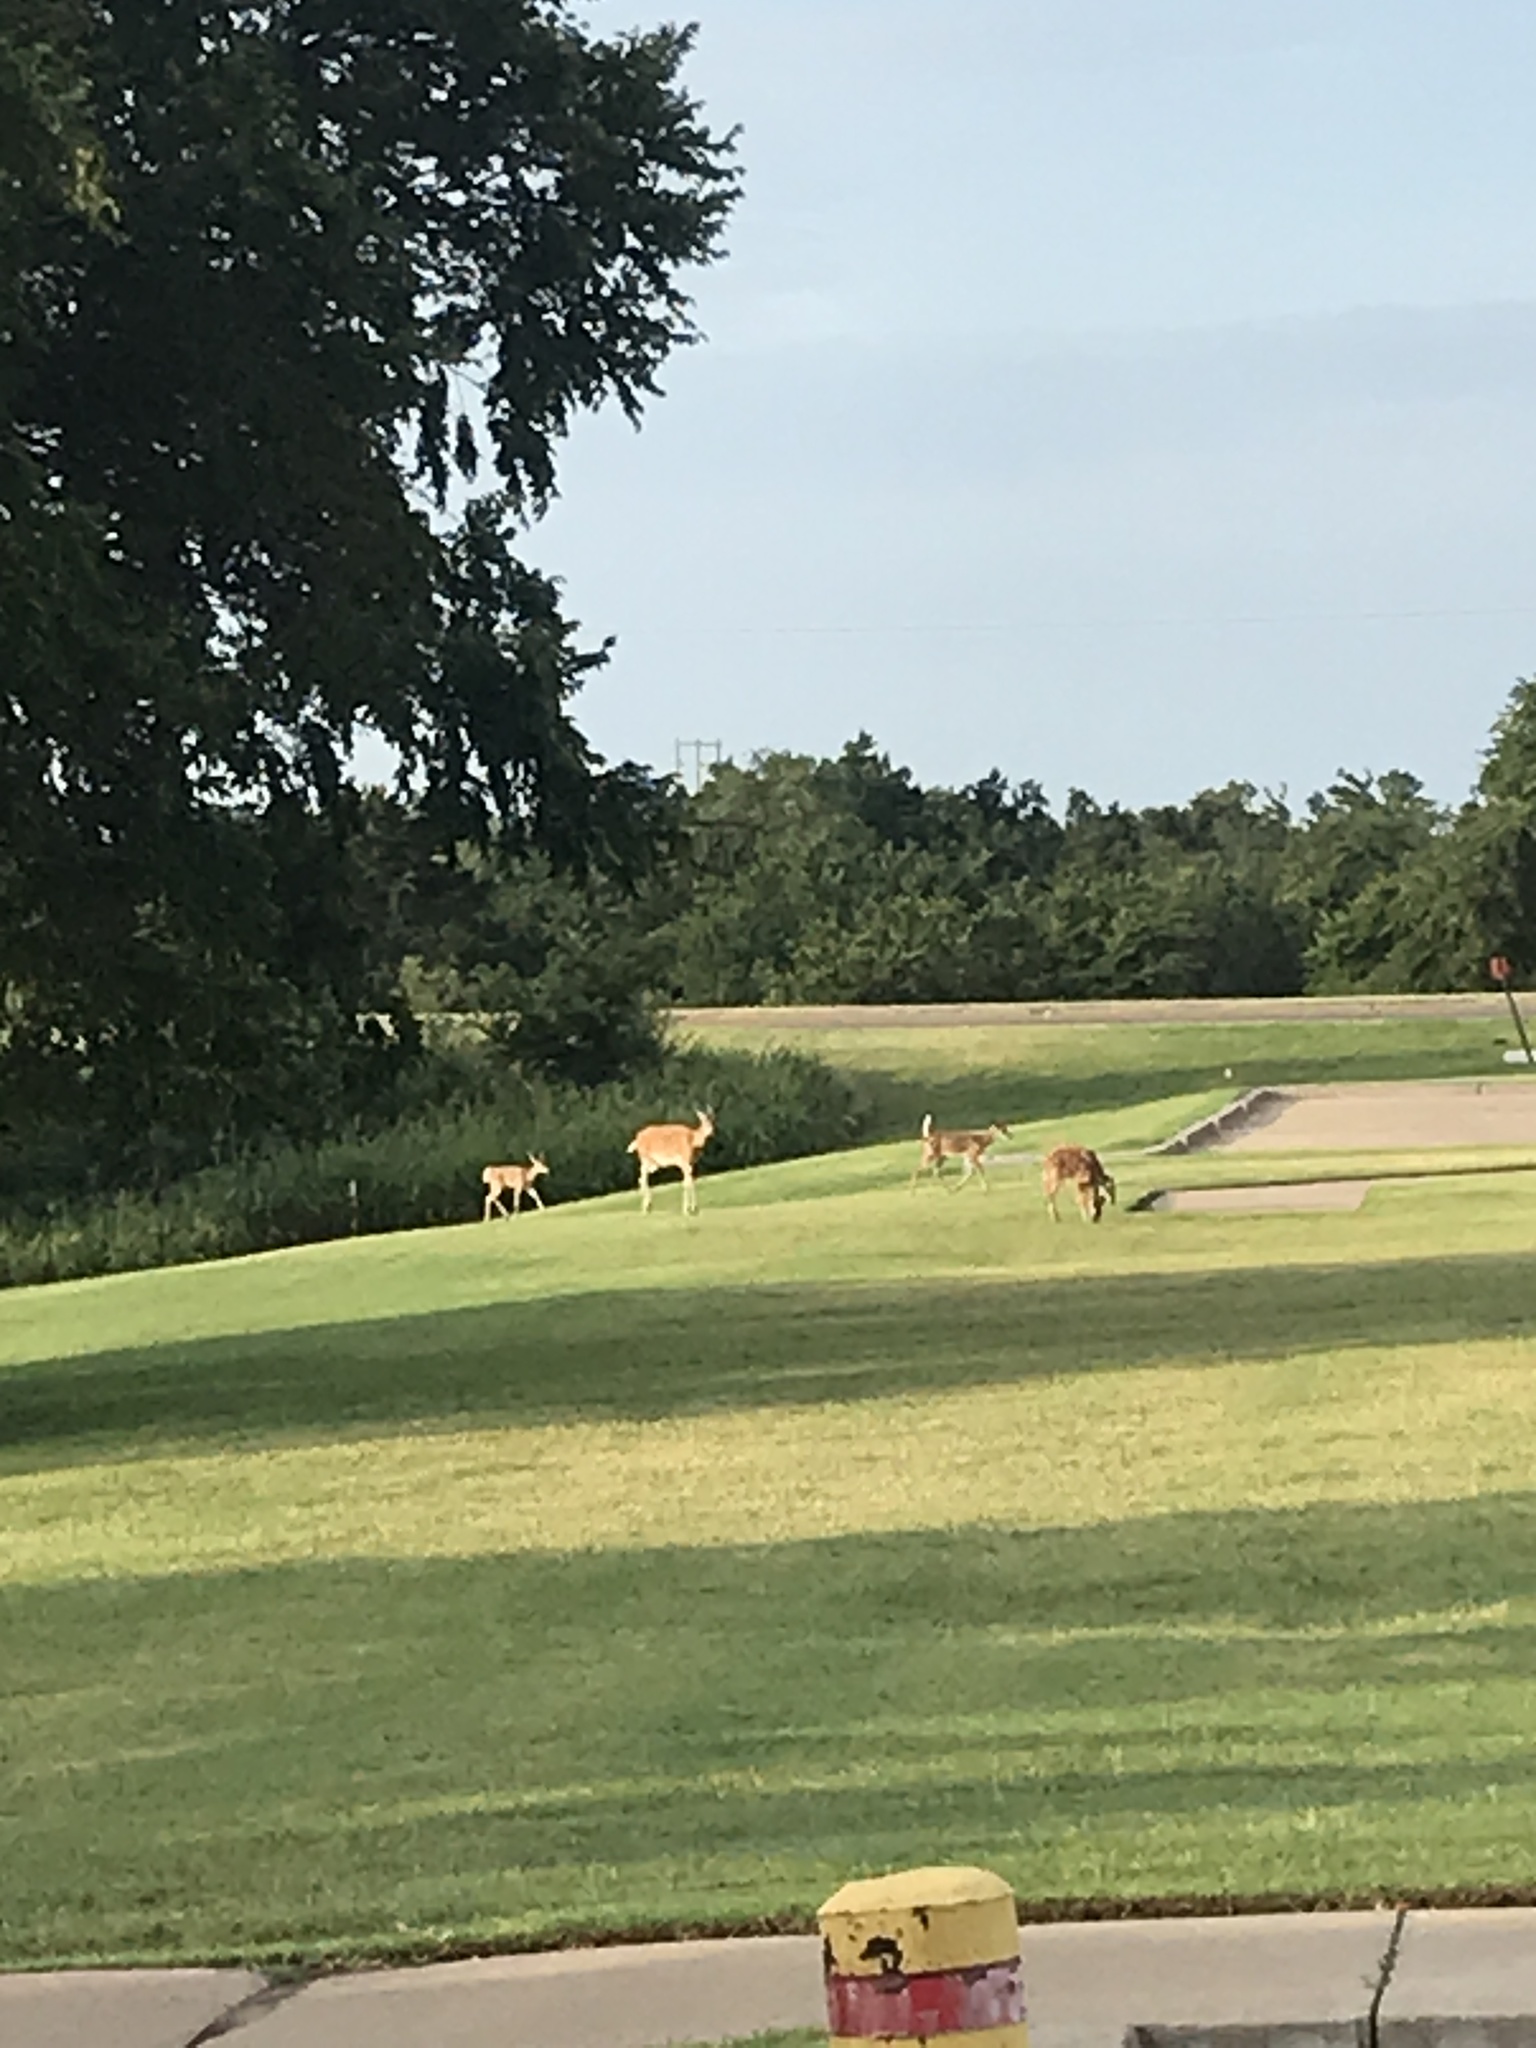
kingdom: Animalia
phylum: Chordata
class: Mammalia
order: Artiodactyla
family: Cervidae
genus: Odocoileus
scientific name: Odocoileus virginianus
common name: White-tailed deer
